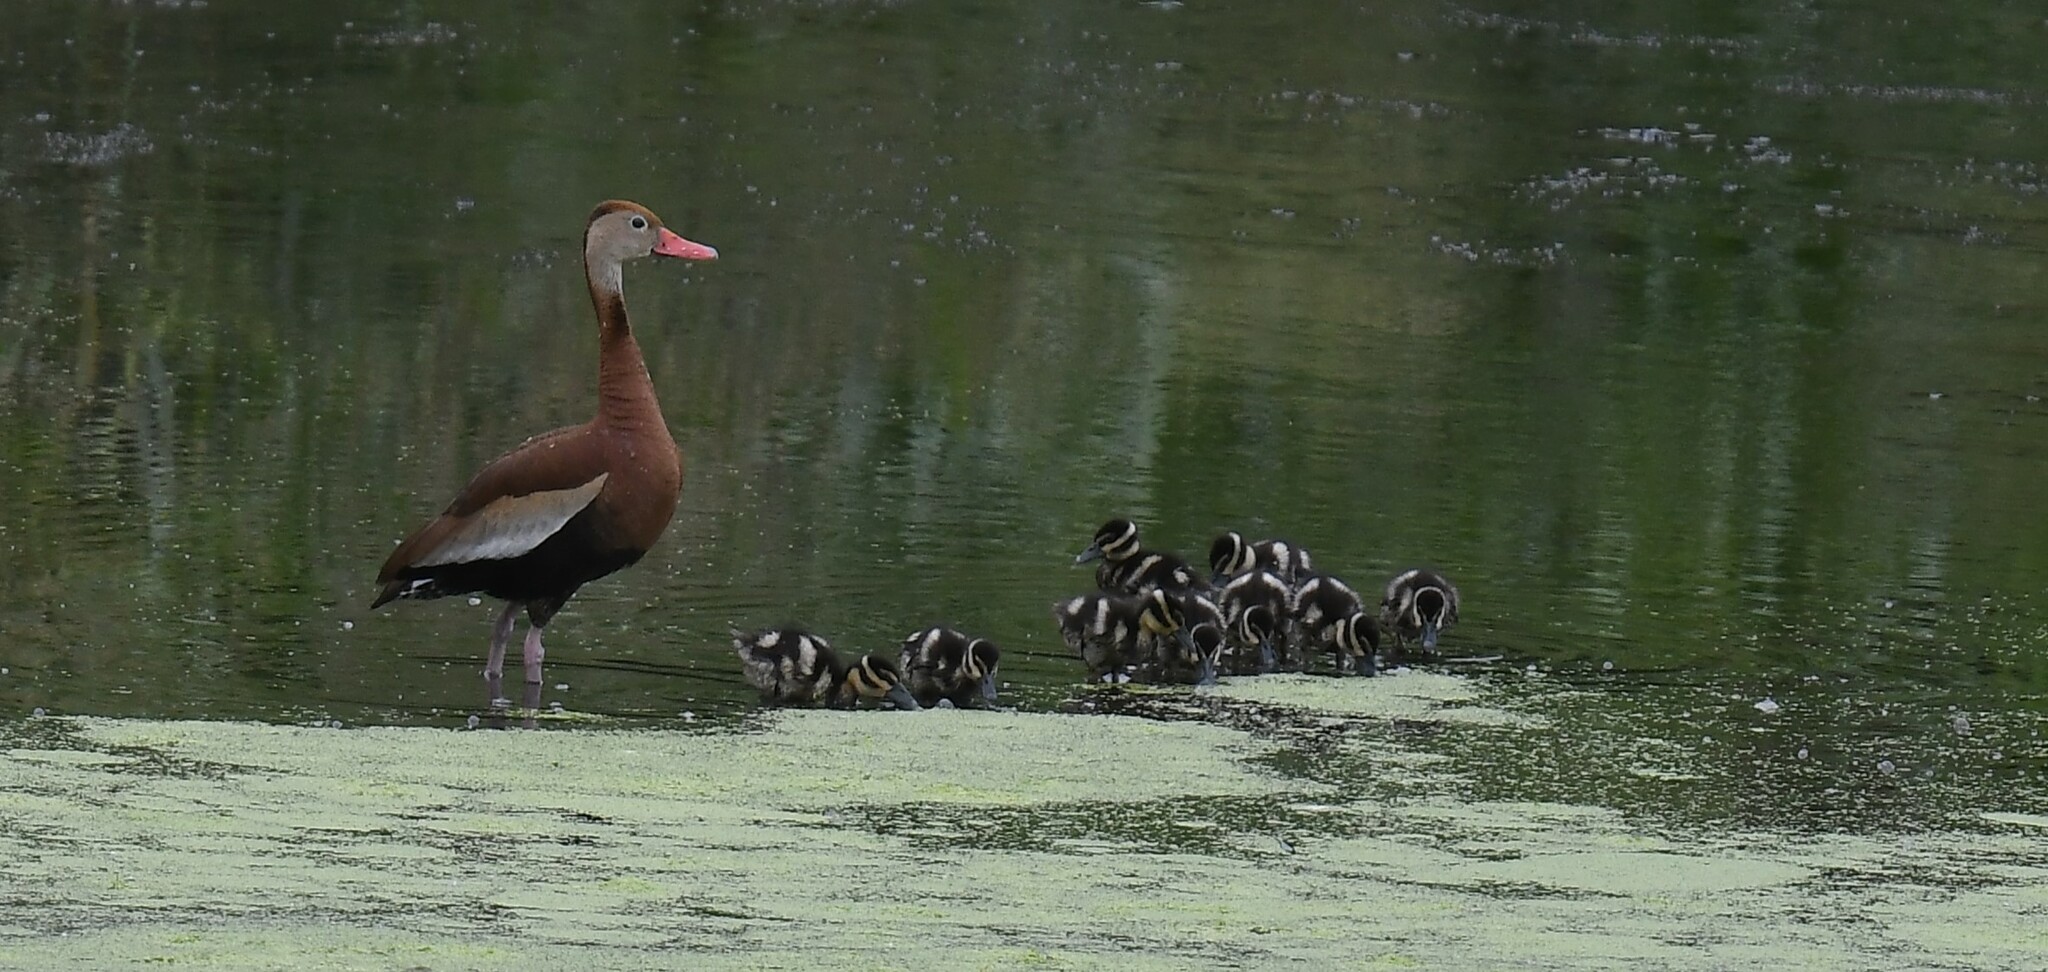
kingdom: Animalia
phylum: Chordata
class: Aves
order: Anseriformes
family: Anatidae
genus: Dendrocygna
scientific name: Dendrocygna autumnalis
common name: Black-bellied whistling duck
